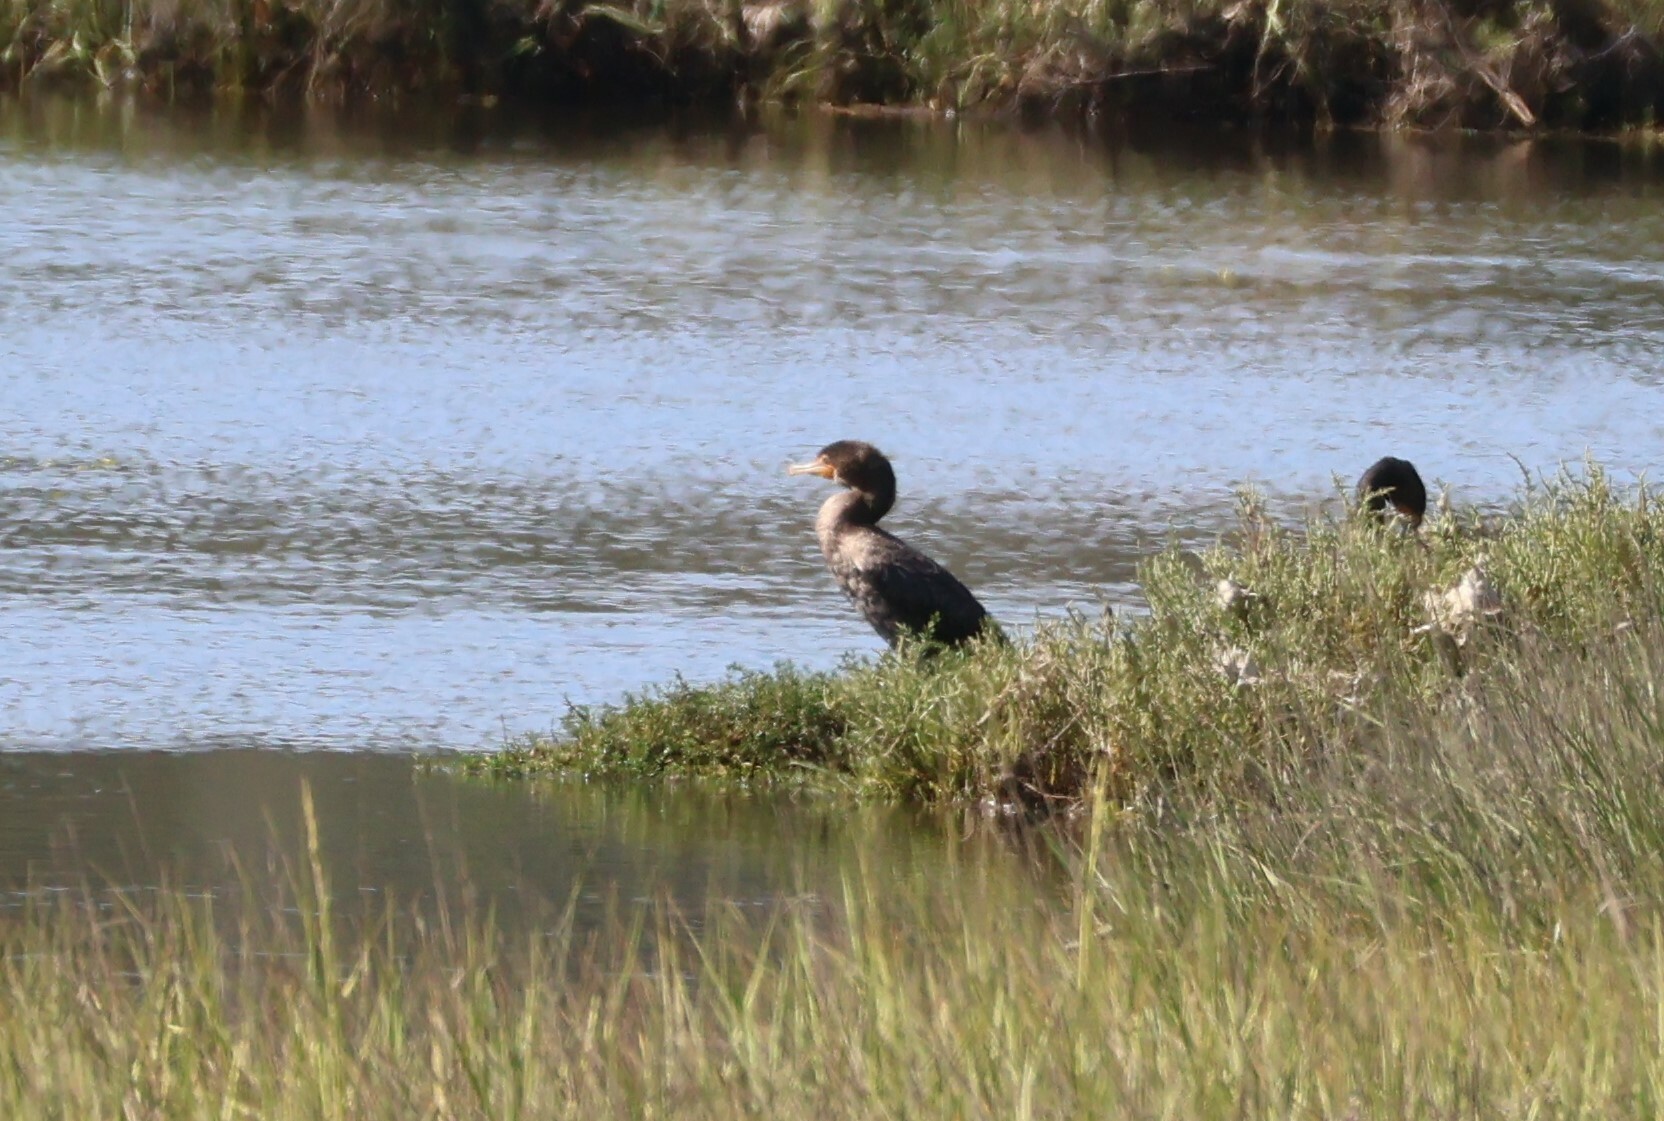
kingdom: Animalia
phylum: Chordata
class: Aves
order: Suliformes
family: Phalacrocoracidae
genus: Phalacrocorax
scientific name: Phalacrocorax auritus
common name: Double-crested cormorant
